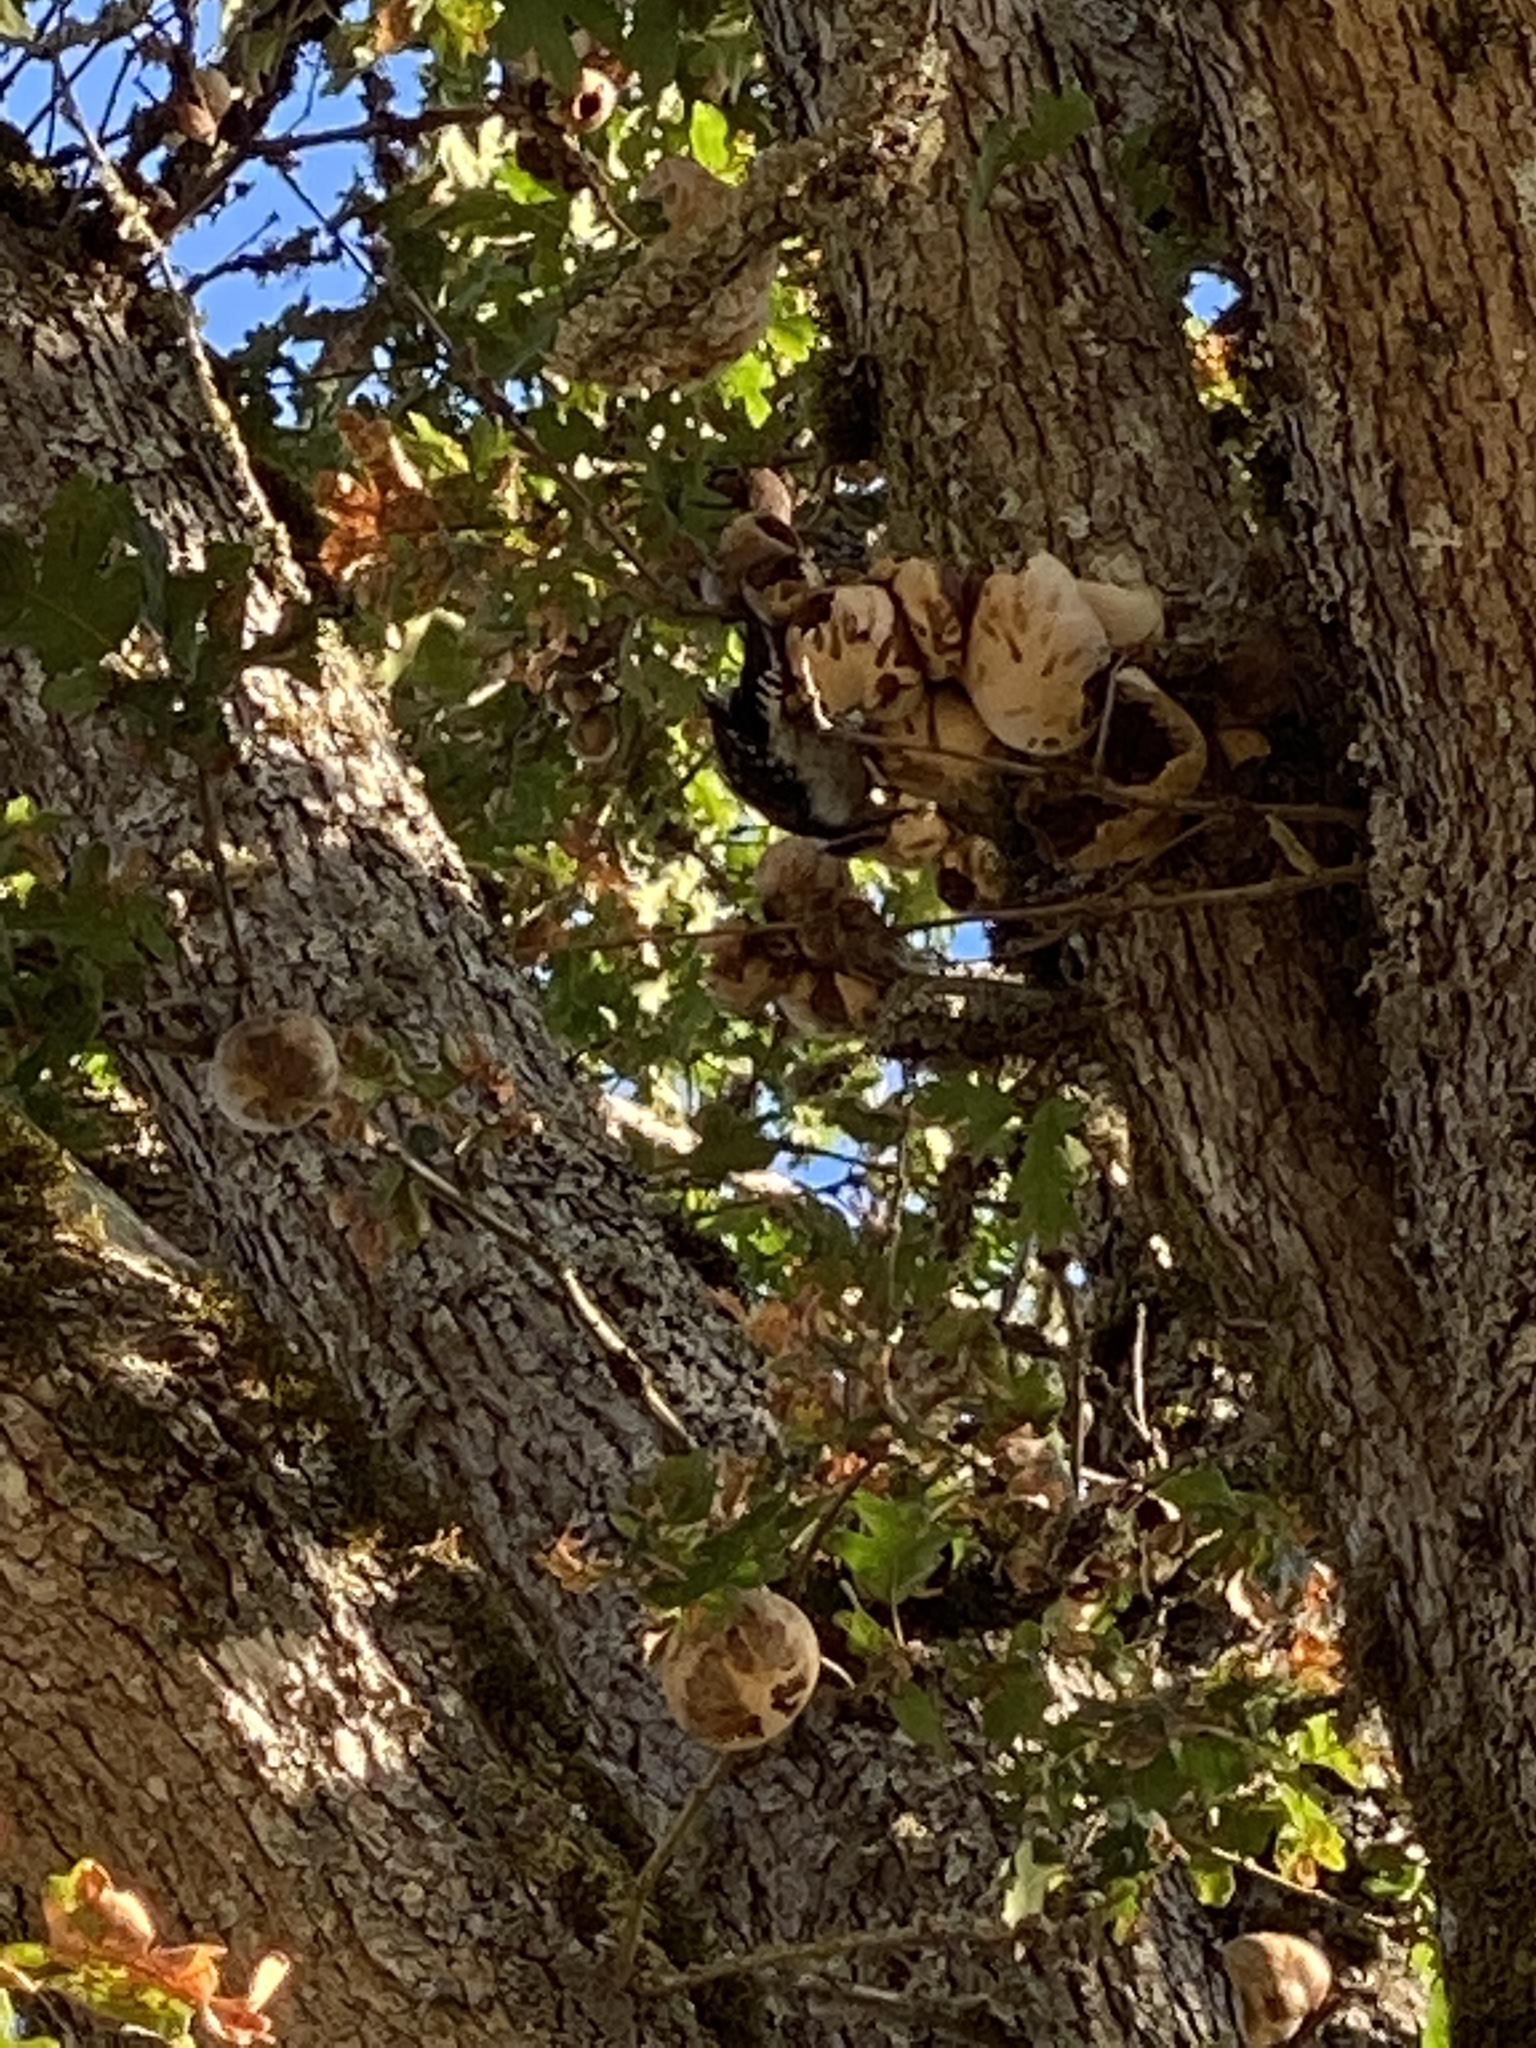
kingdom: Animalia
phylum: Chordata
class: Aves
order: Piciformes
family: Picidae
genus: Dryobates
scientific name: Dryobates pubescens
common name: Downy woodpecker
